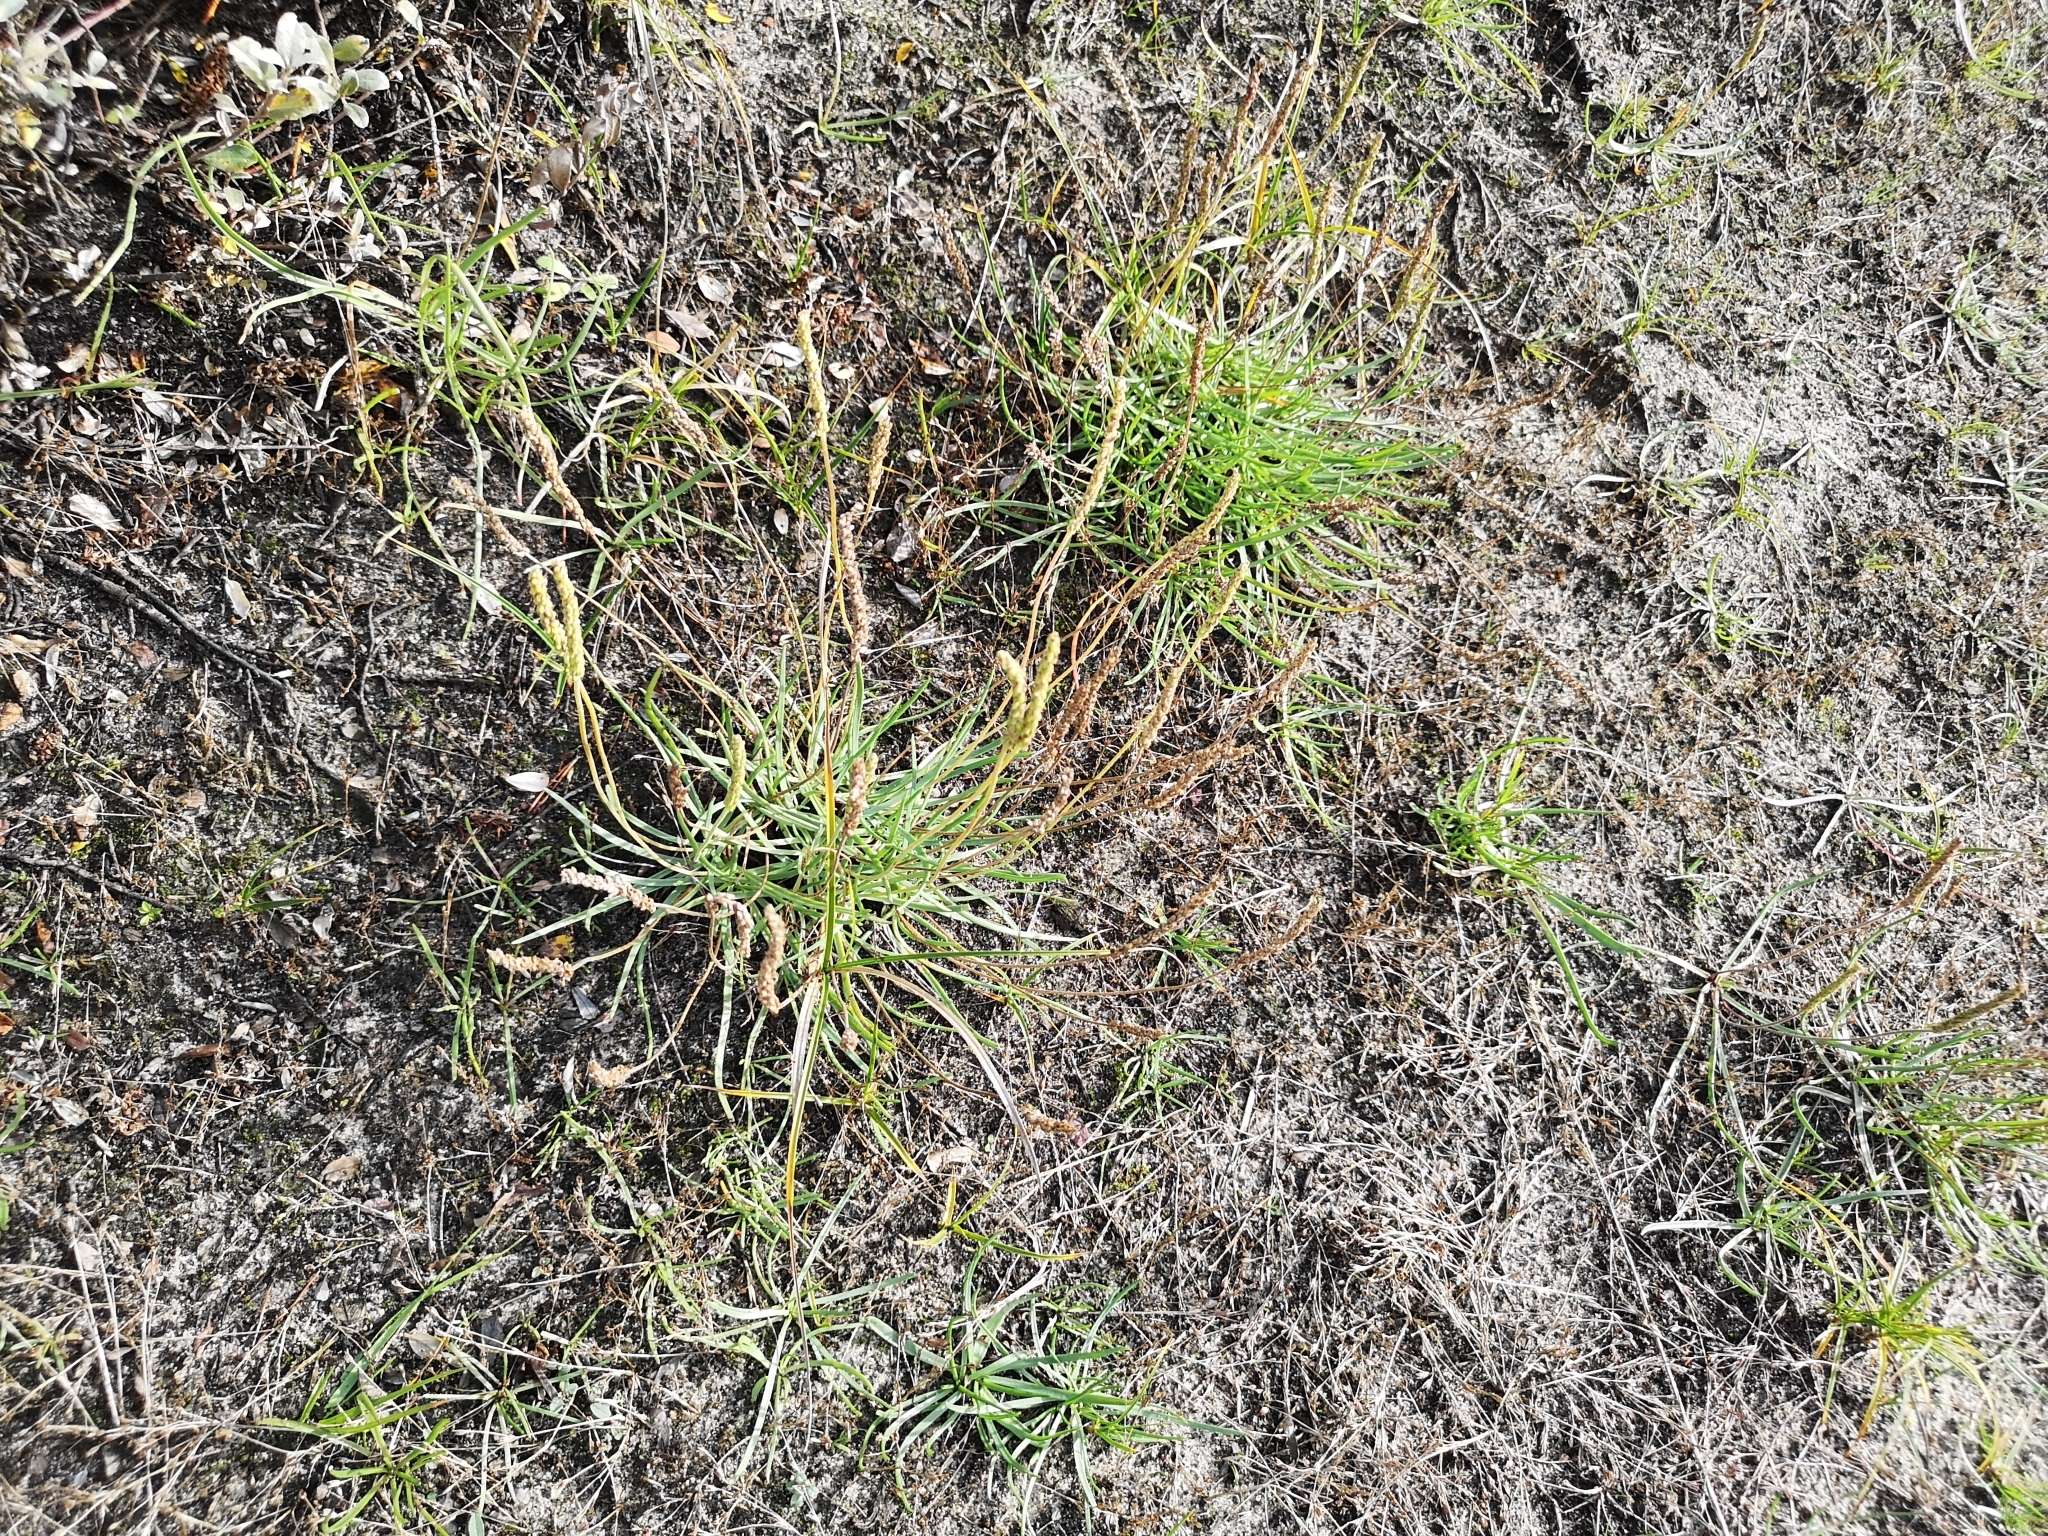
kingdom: Plantae
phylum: Tracheophyta
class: Magnoliopsida
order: Lamiales
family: Plantaginaceae
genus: Plantago
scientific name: Plantago maritima
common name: Sea plantain
